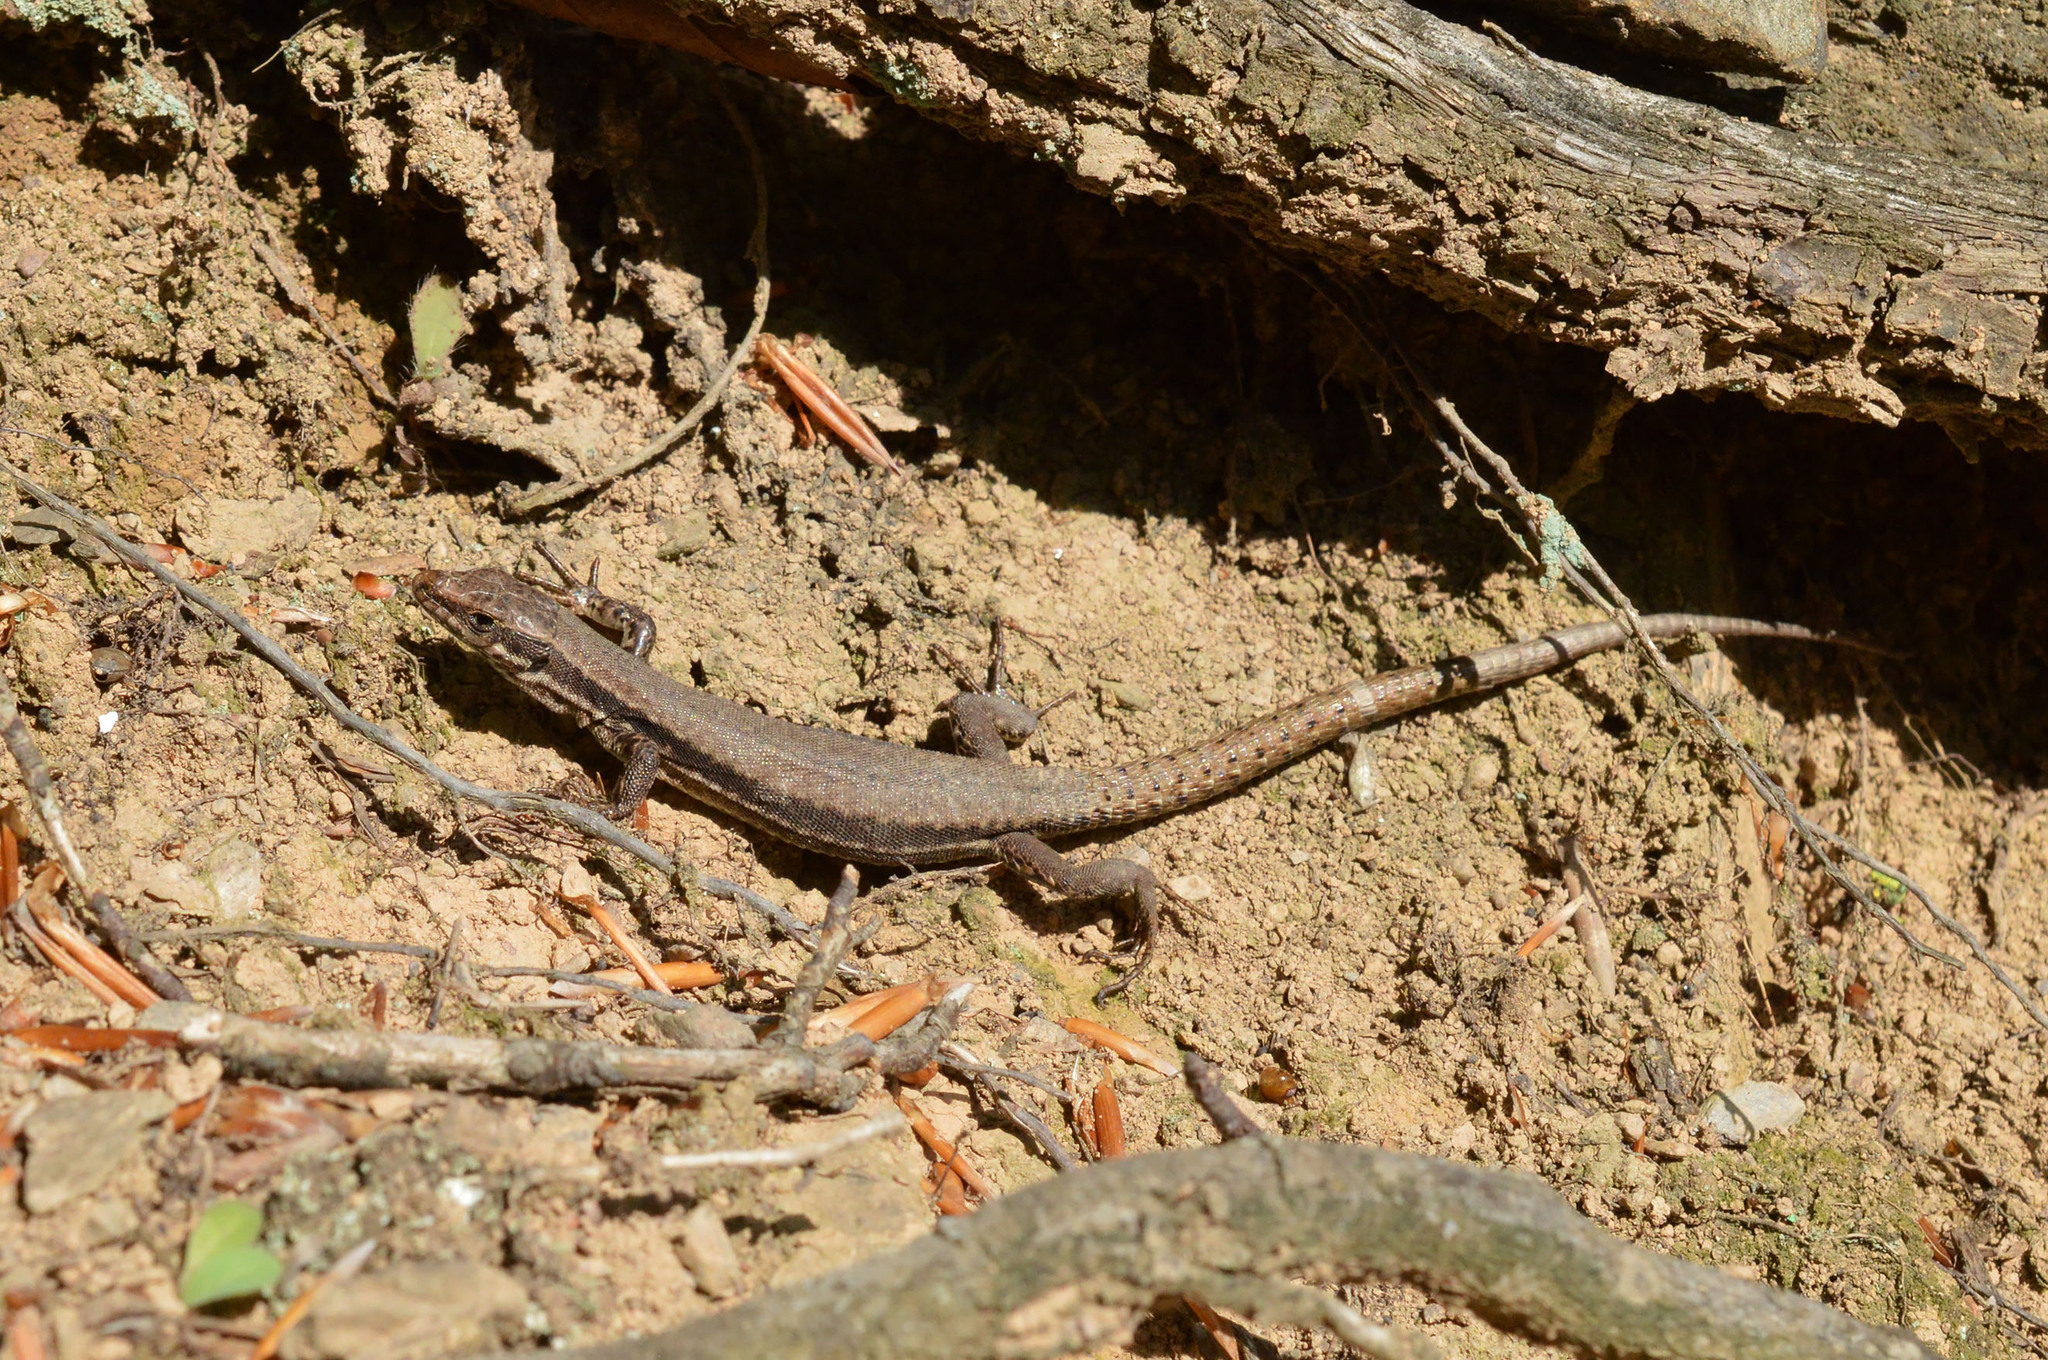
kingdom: Animalia
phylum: Chordata
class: Squamata
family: Lacertidae
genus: Podarcis
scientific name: Podarcis muralis
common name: Common wall lizard
